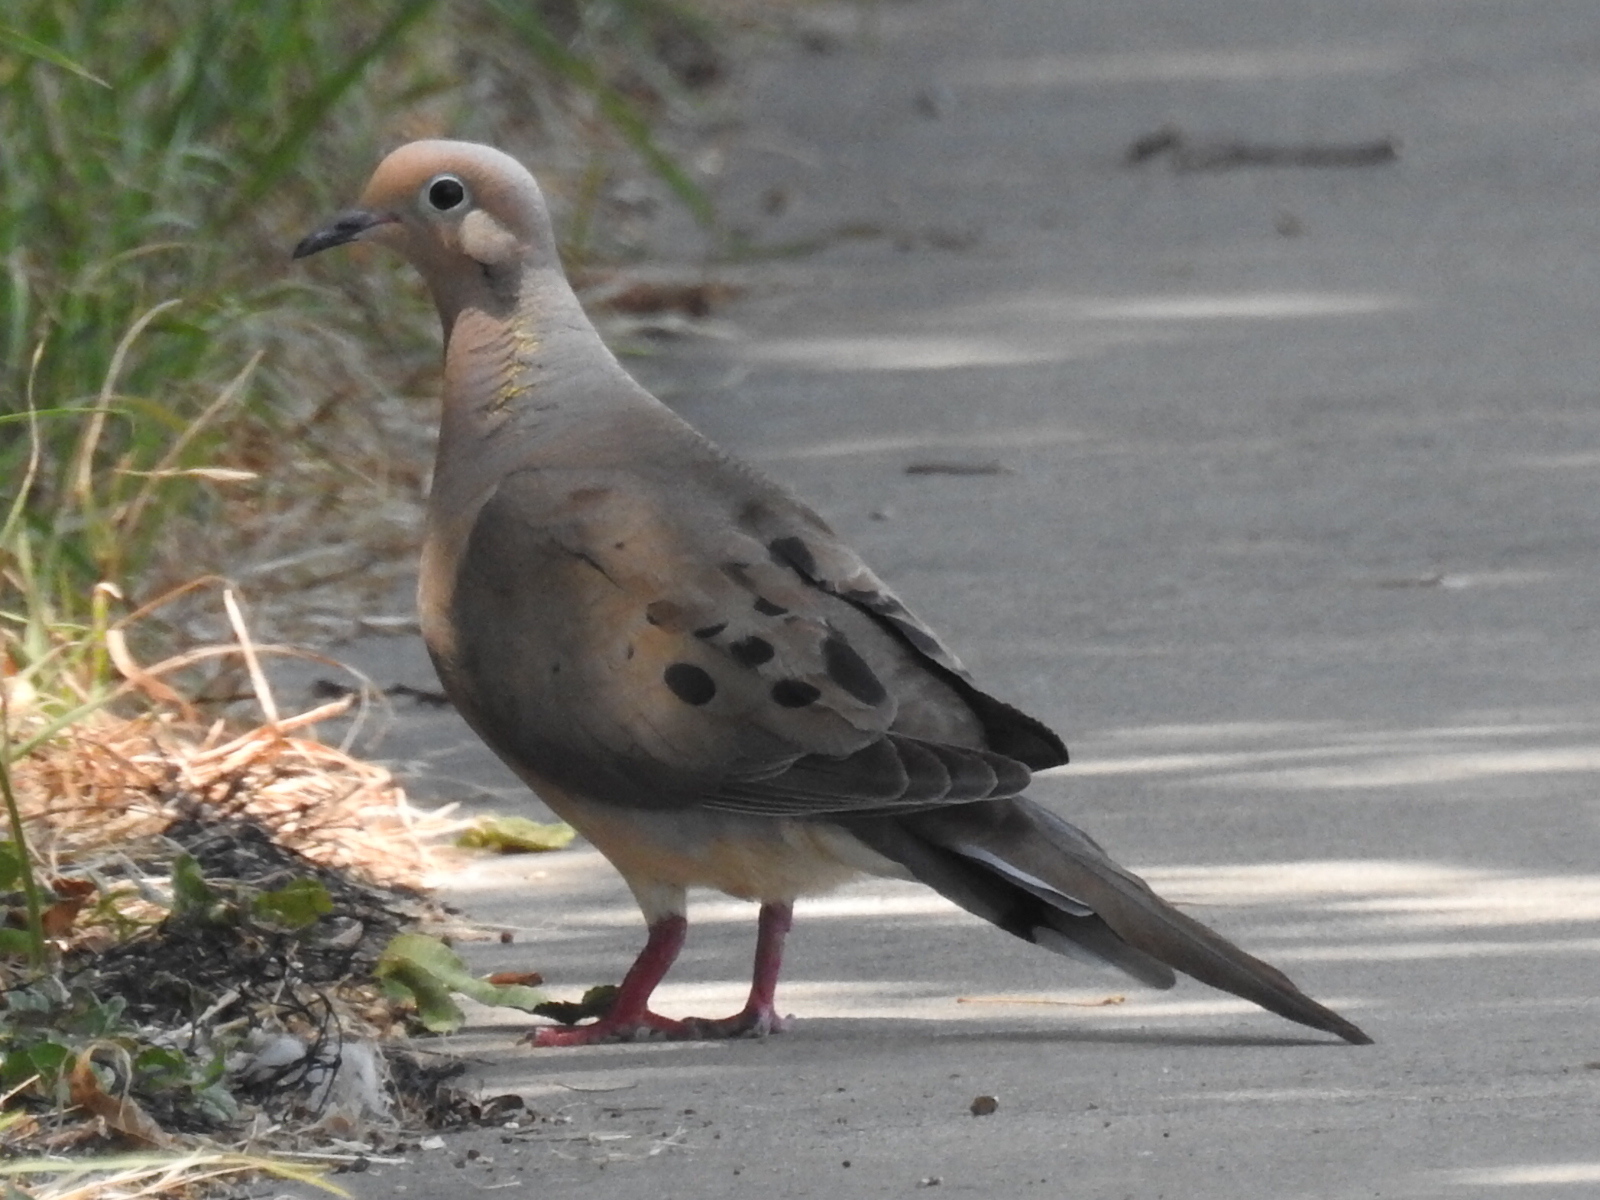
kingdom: Animalia
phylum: Chordata
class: Aves
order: Columbiformes
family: Columbidae
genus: Zenaida
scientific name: Zenaida macroura
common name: Mourning dove
